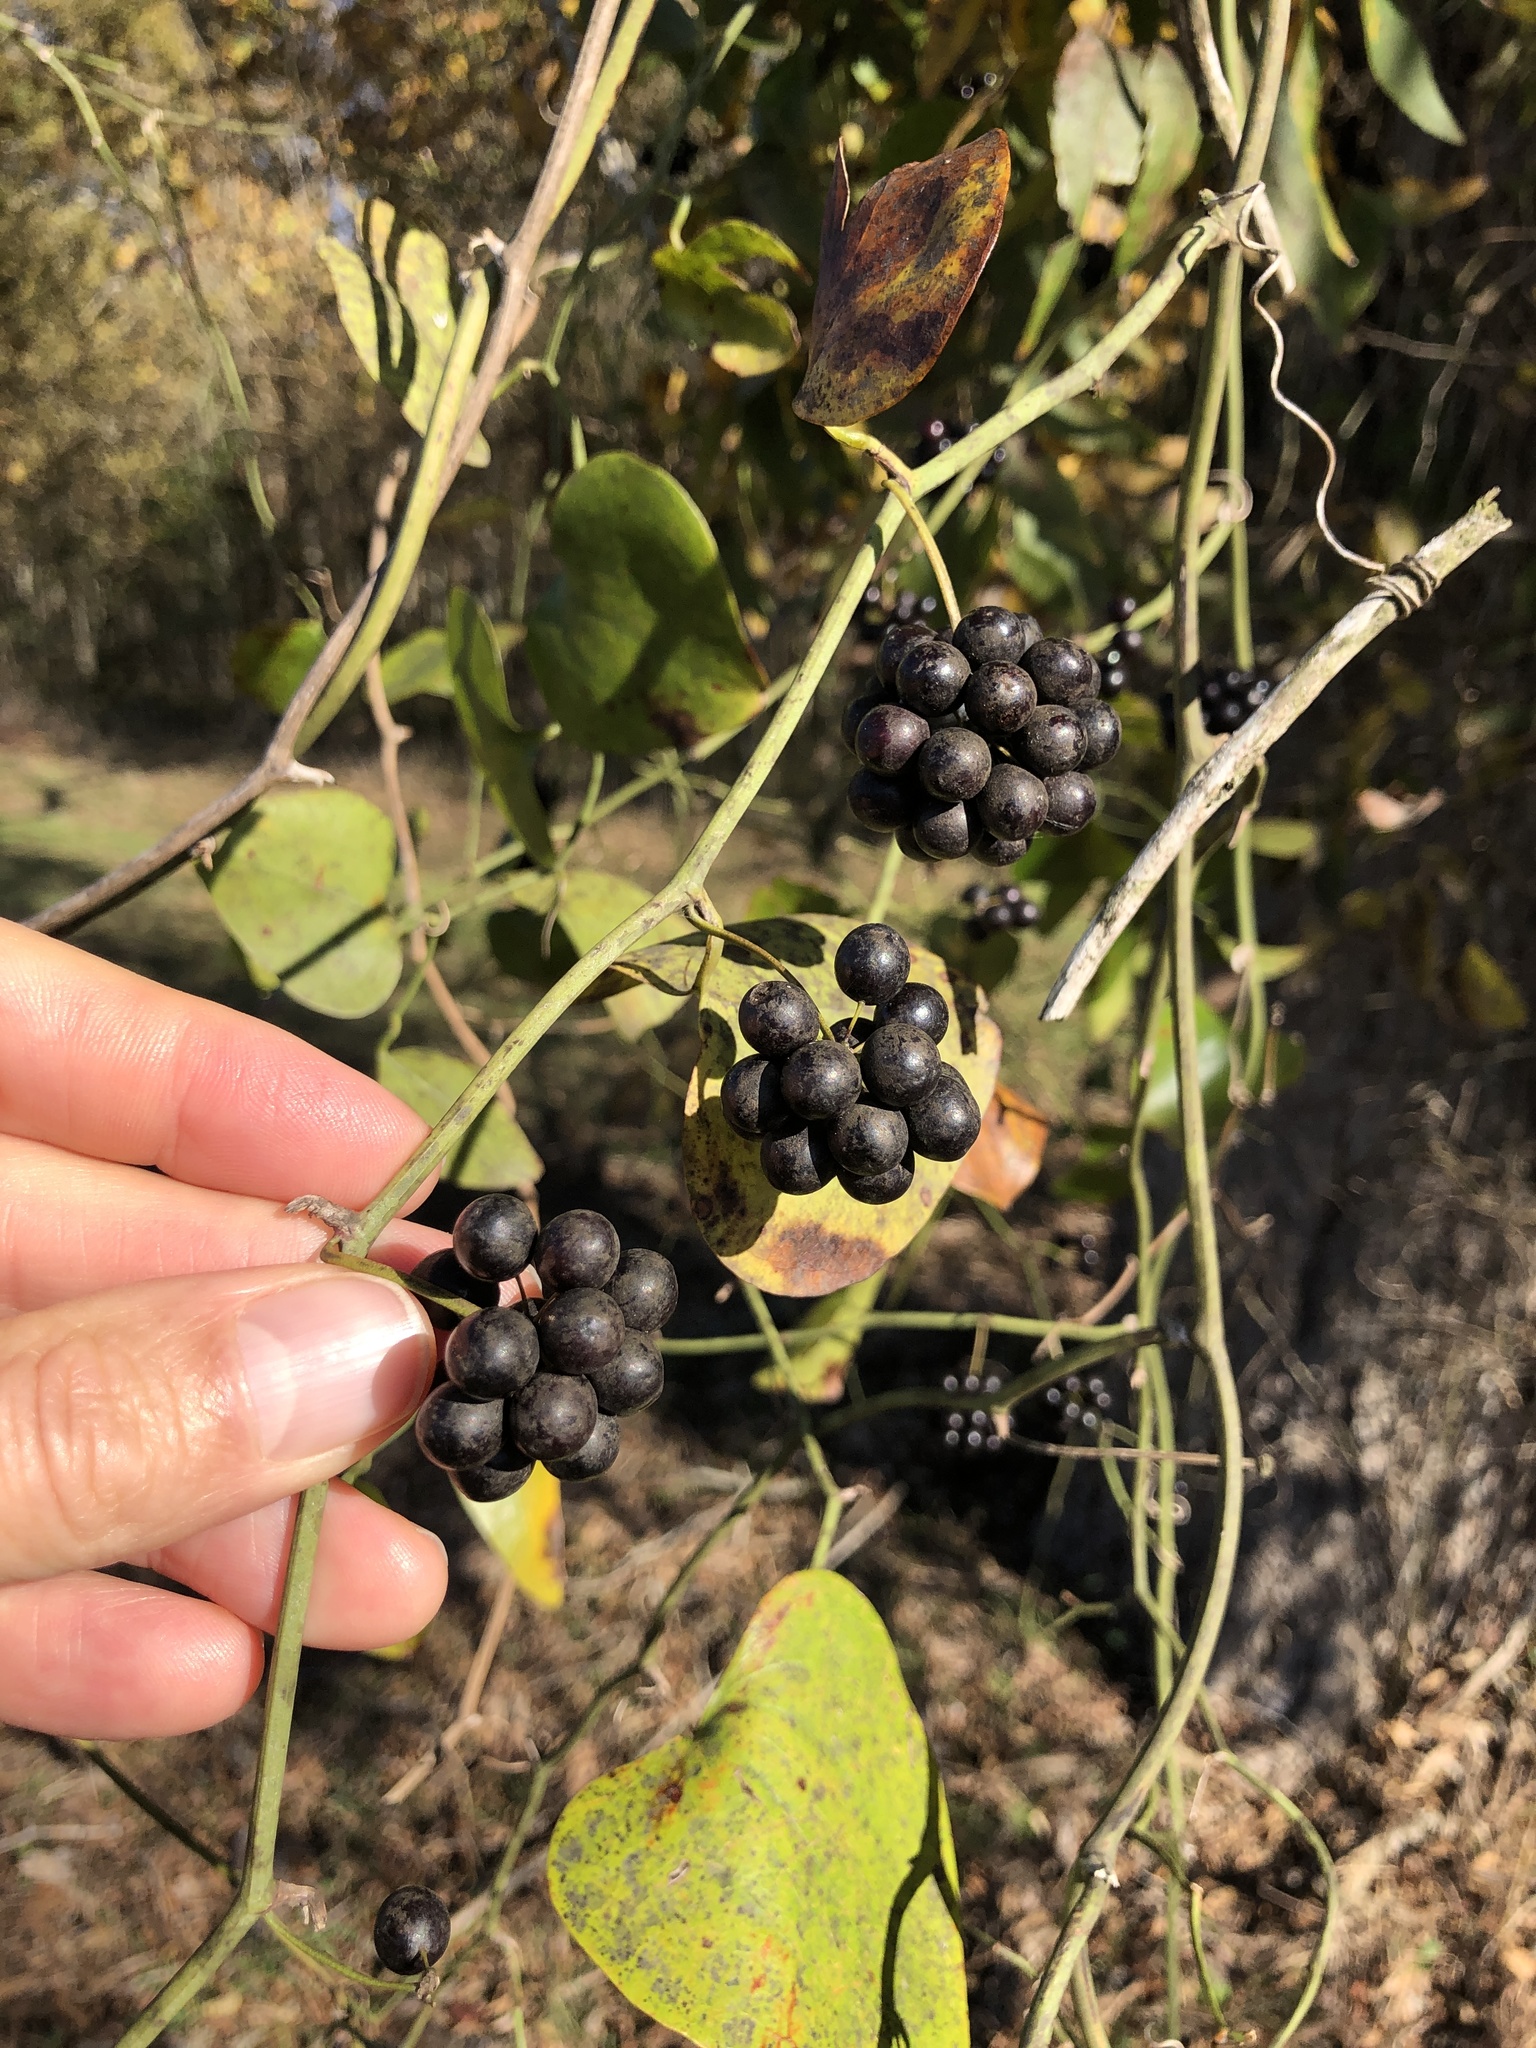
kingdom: Plantae
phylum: Tracheophyta
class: Liliopsida
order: Liliales
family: Smilacaceae
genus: Smilax
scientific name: Smilax bona-nox
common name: Catbrier
